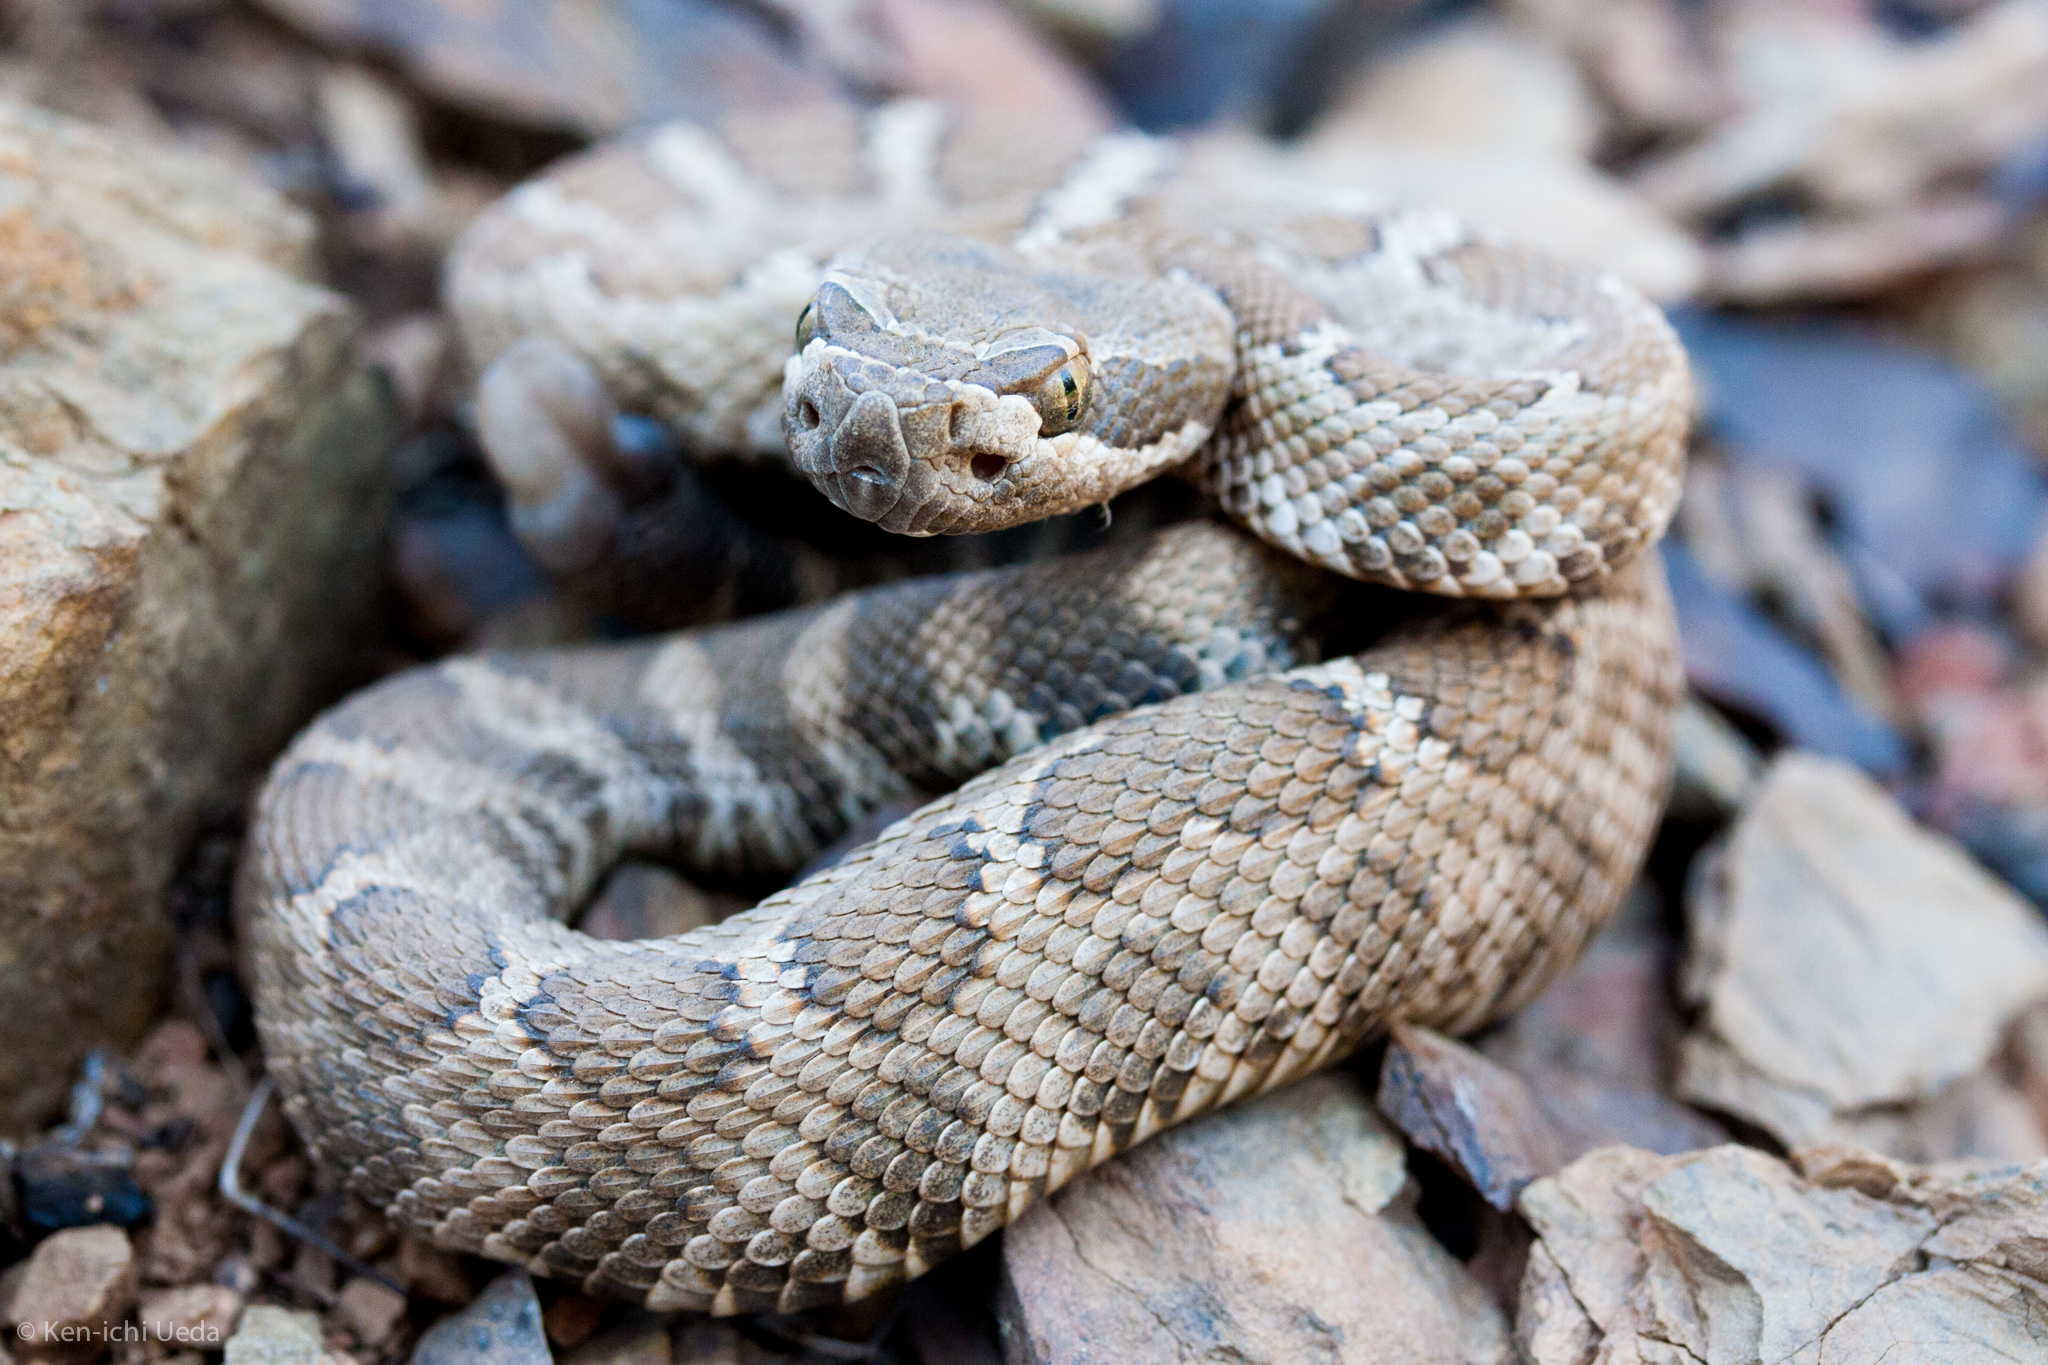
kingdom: Animalia
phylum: Chordata
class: Squamata
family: Viperidae
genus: Crotalus
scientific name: Crotalus oreganus
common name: Abyssus
